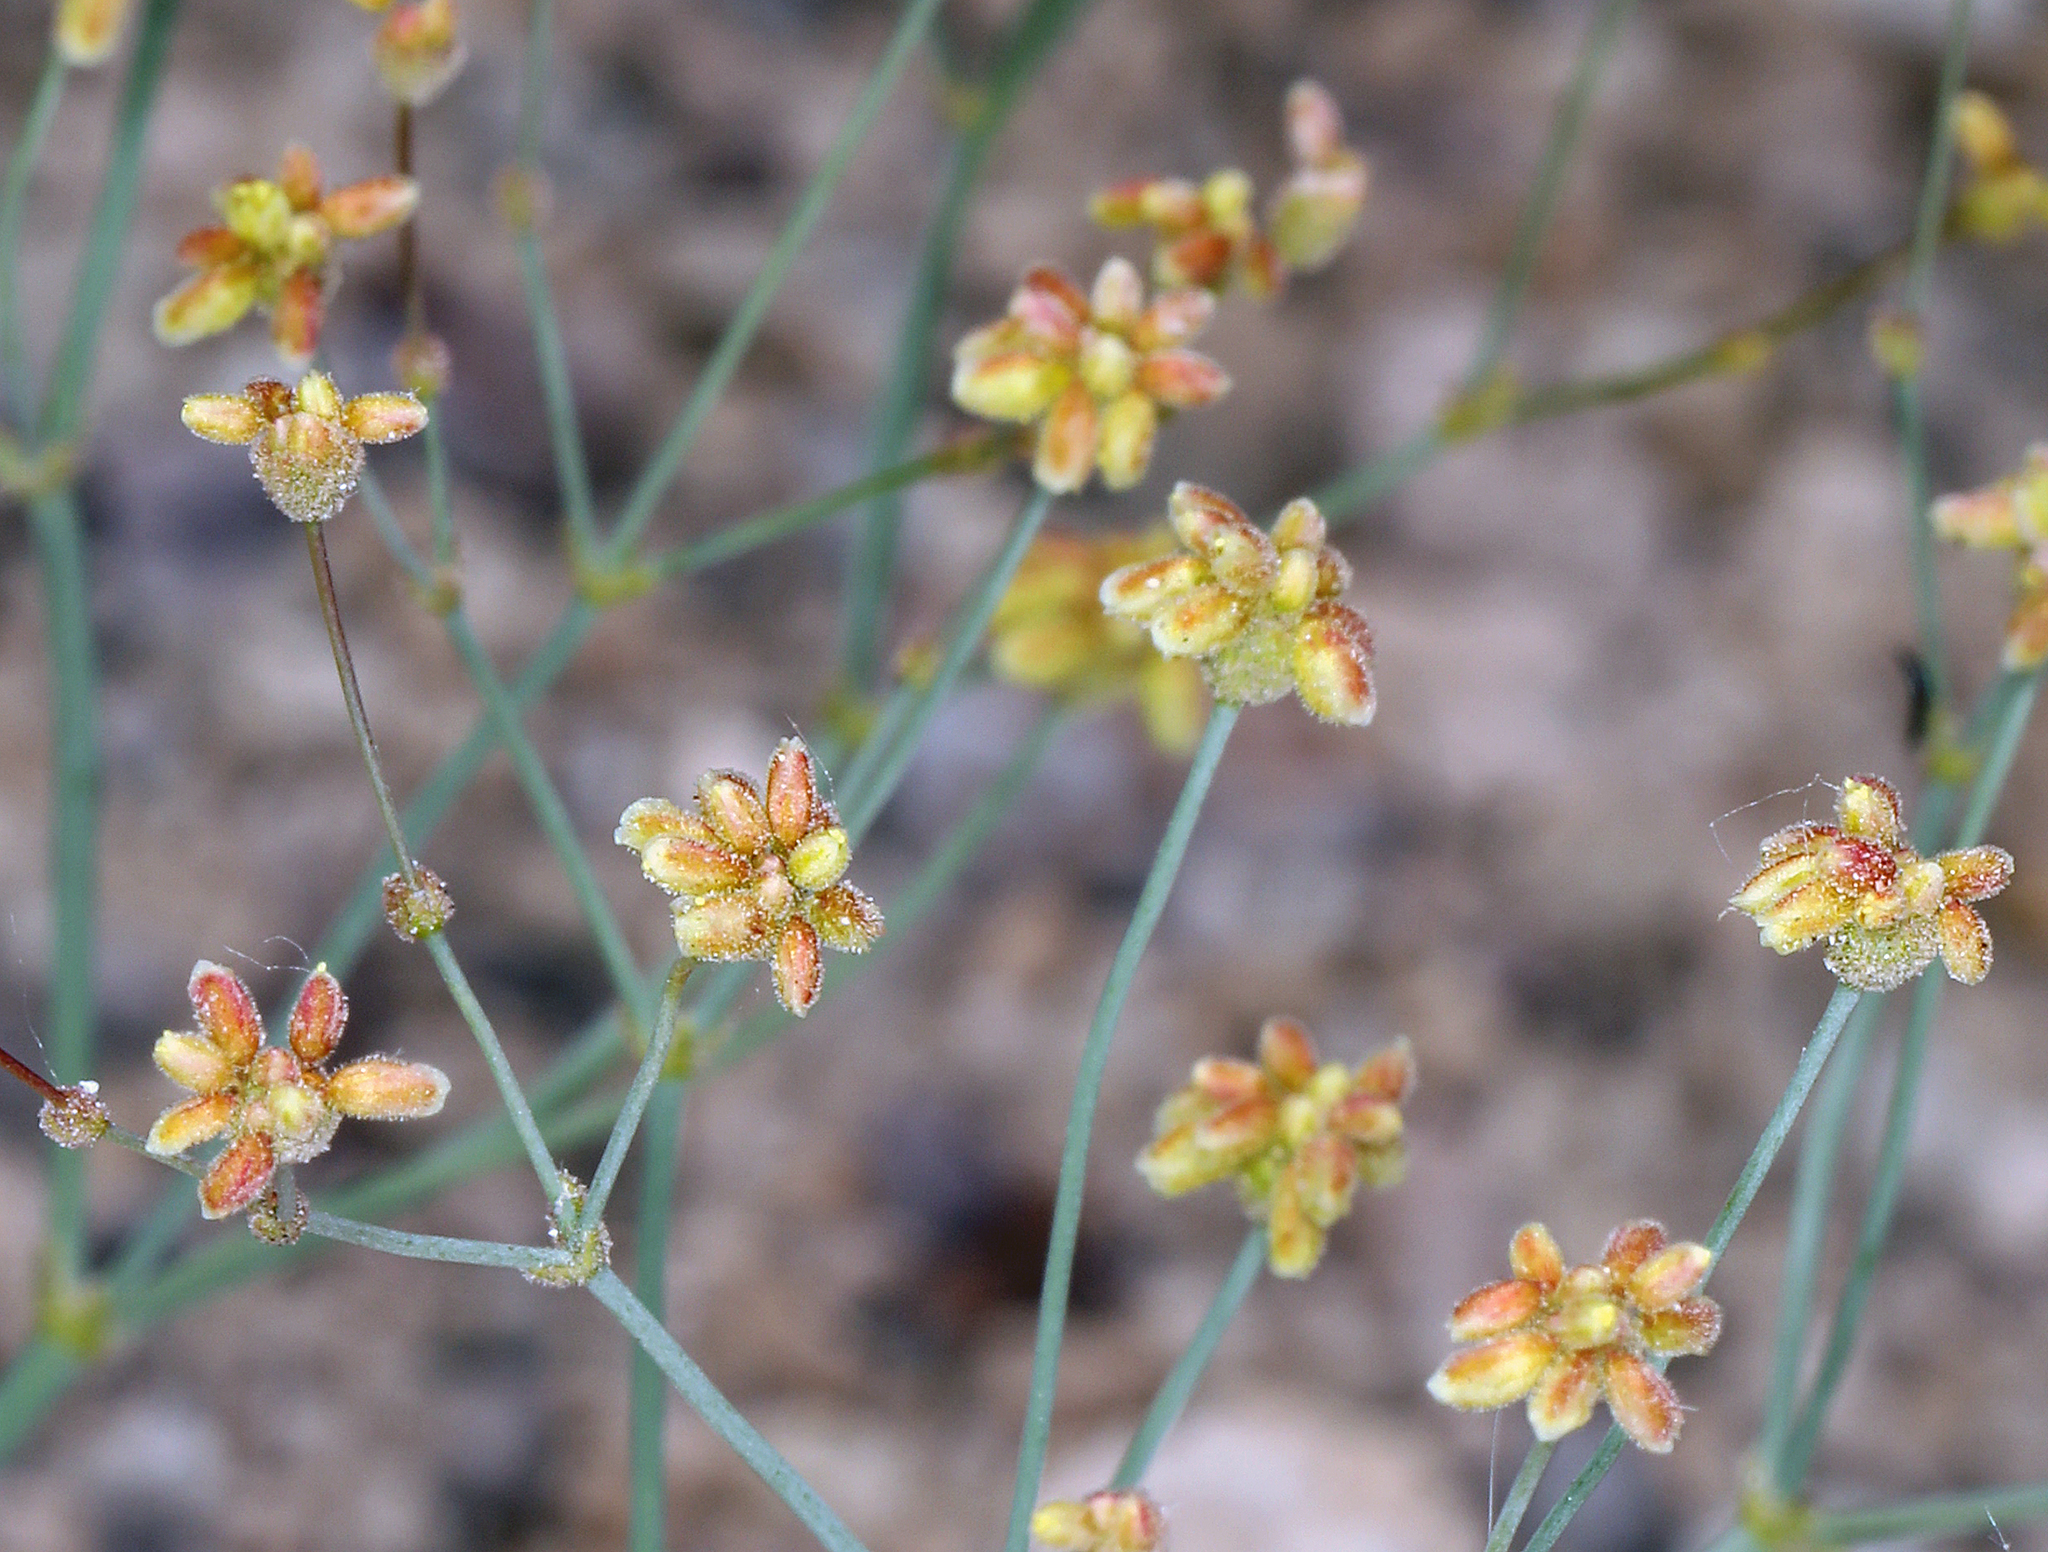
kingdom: Plantae
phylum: Tracheophyta
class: Magnoliopsida
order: Caryophyllales
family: Polygonaceae
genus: Eriogonum
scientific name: Eriogonum pusillum
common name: Yellow turbans
